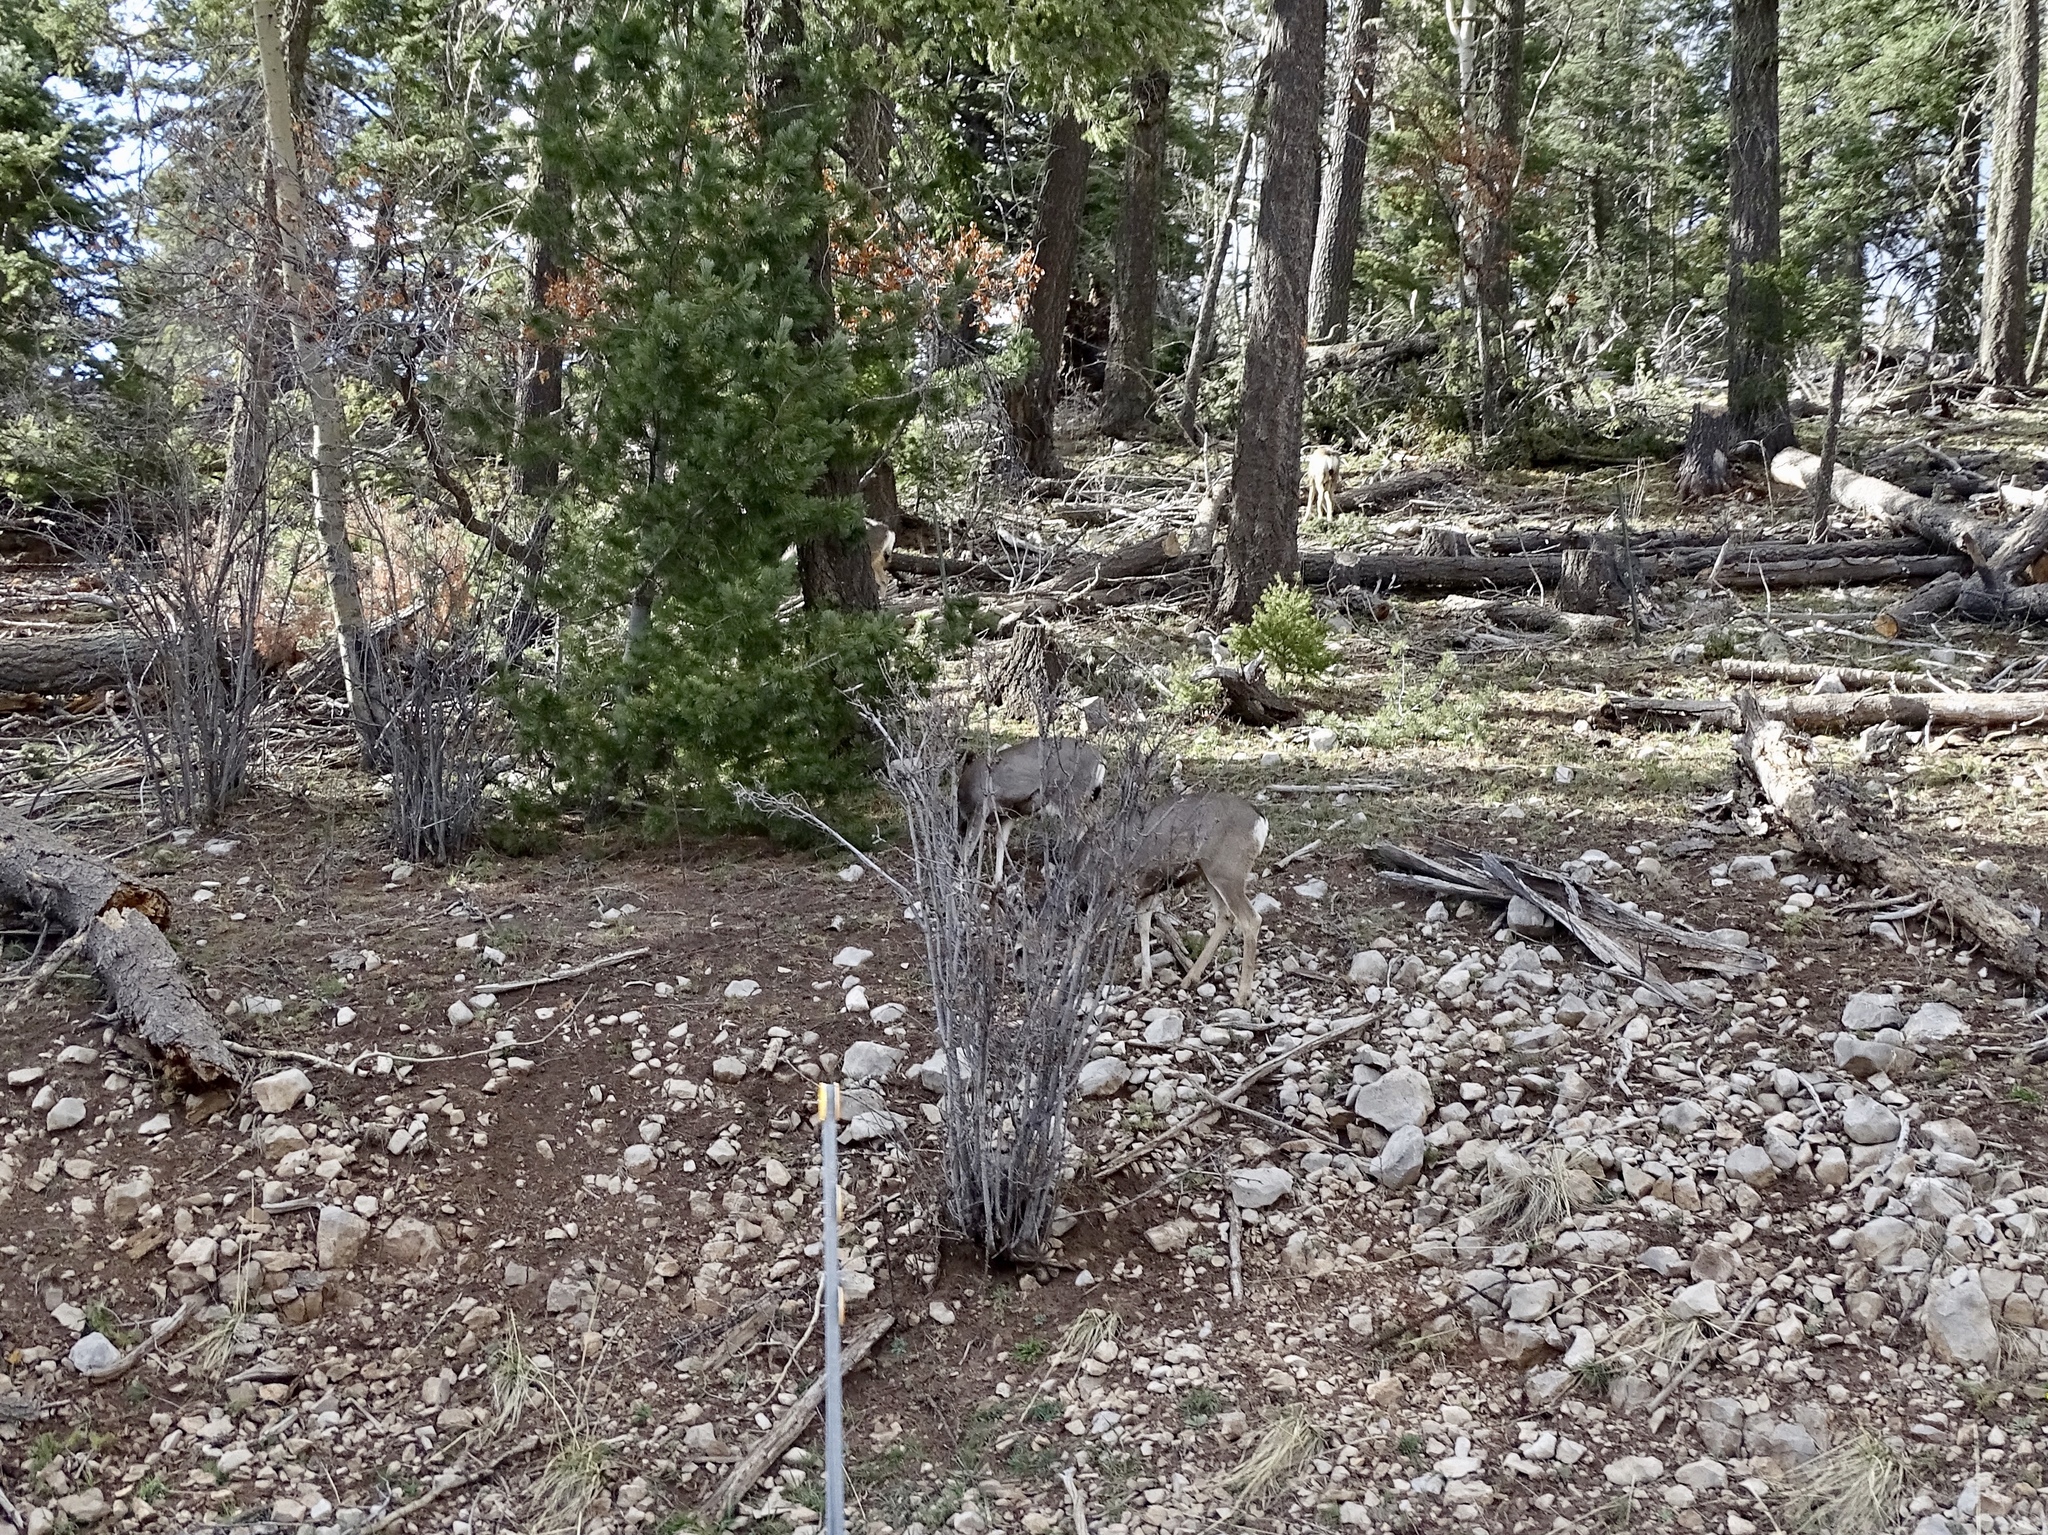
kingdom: Animalia
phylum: Chordata
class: Mammalia
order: Artiodactyla
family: Cervidae
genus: Odocoileus
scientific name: Odocoileus hemionus
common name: Mule deer
